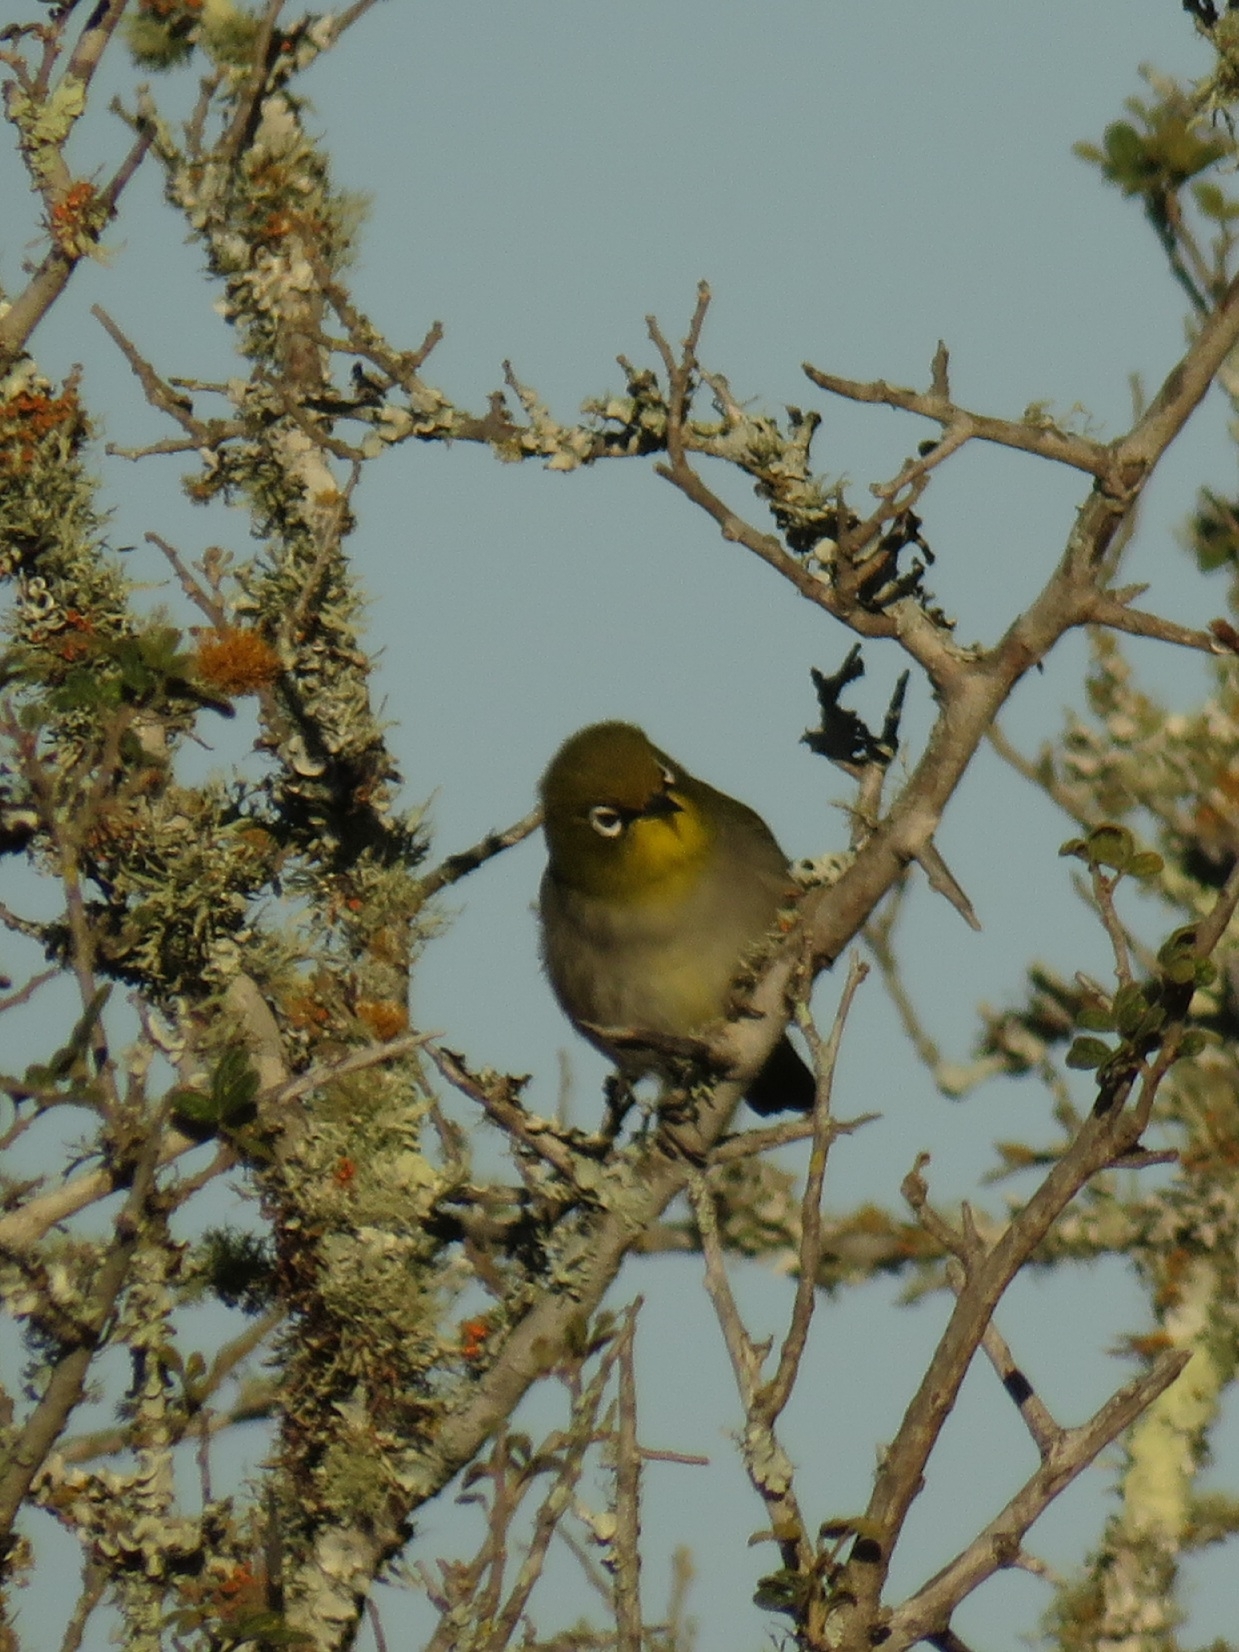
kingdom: Animalia
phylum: Chordata
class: Aves
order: Passeriformes
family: Zosteropidae
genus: Zosterops
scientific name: Zosterops virens
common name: Cape white-eye
